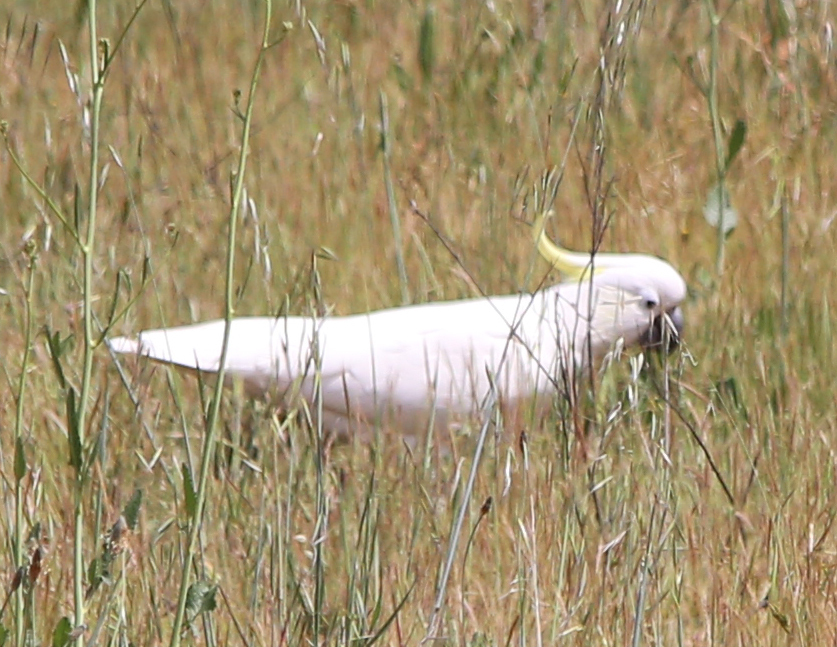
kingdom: Animalia
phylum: Chordata
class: Aves
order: Psittaciformes
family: Psittacidae
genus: Cacatua
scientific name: Cacatua galerita
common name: Sulphur-crested cockatoo
